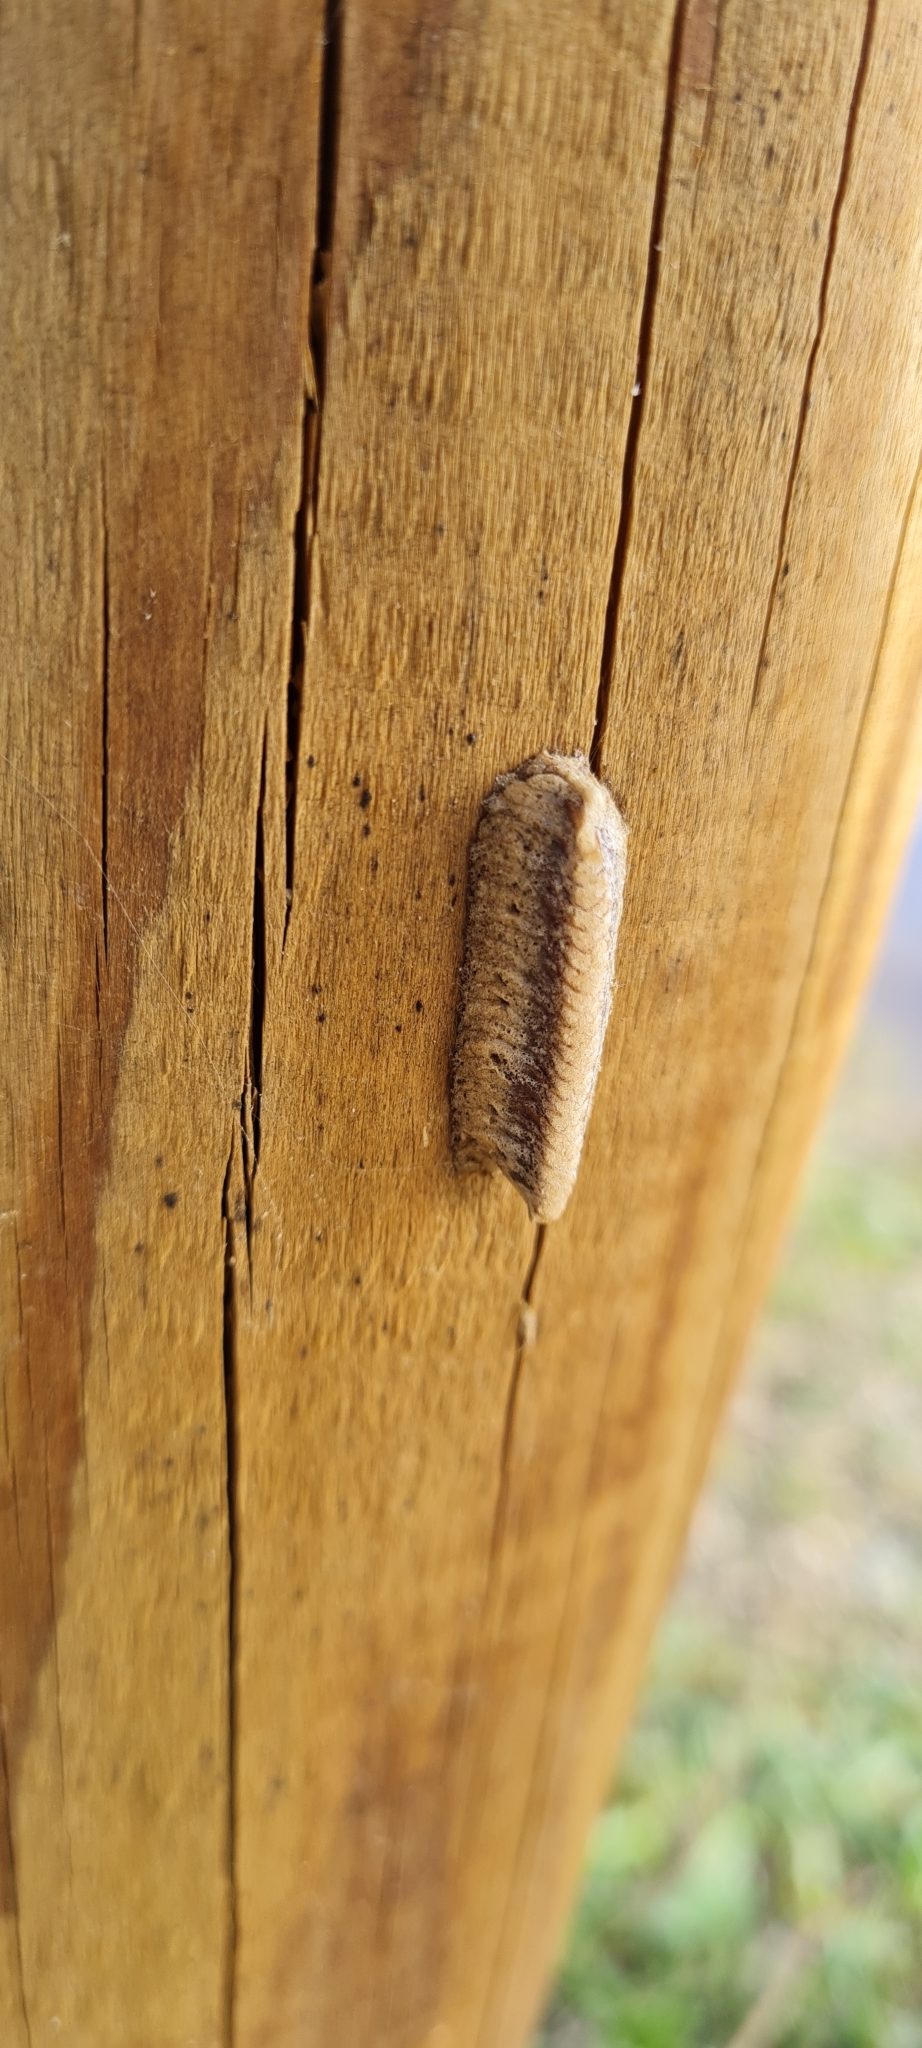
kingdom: Animalia
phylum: Arthropoda
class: Insecta
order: Mantodea
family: Eremiaphilidae
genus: Iris
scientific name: Iris oratoria
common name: Mediterranean mantis
